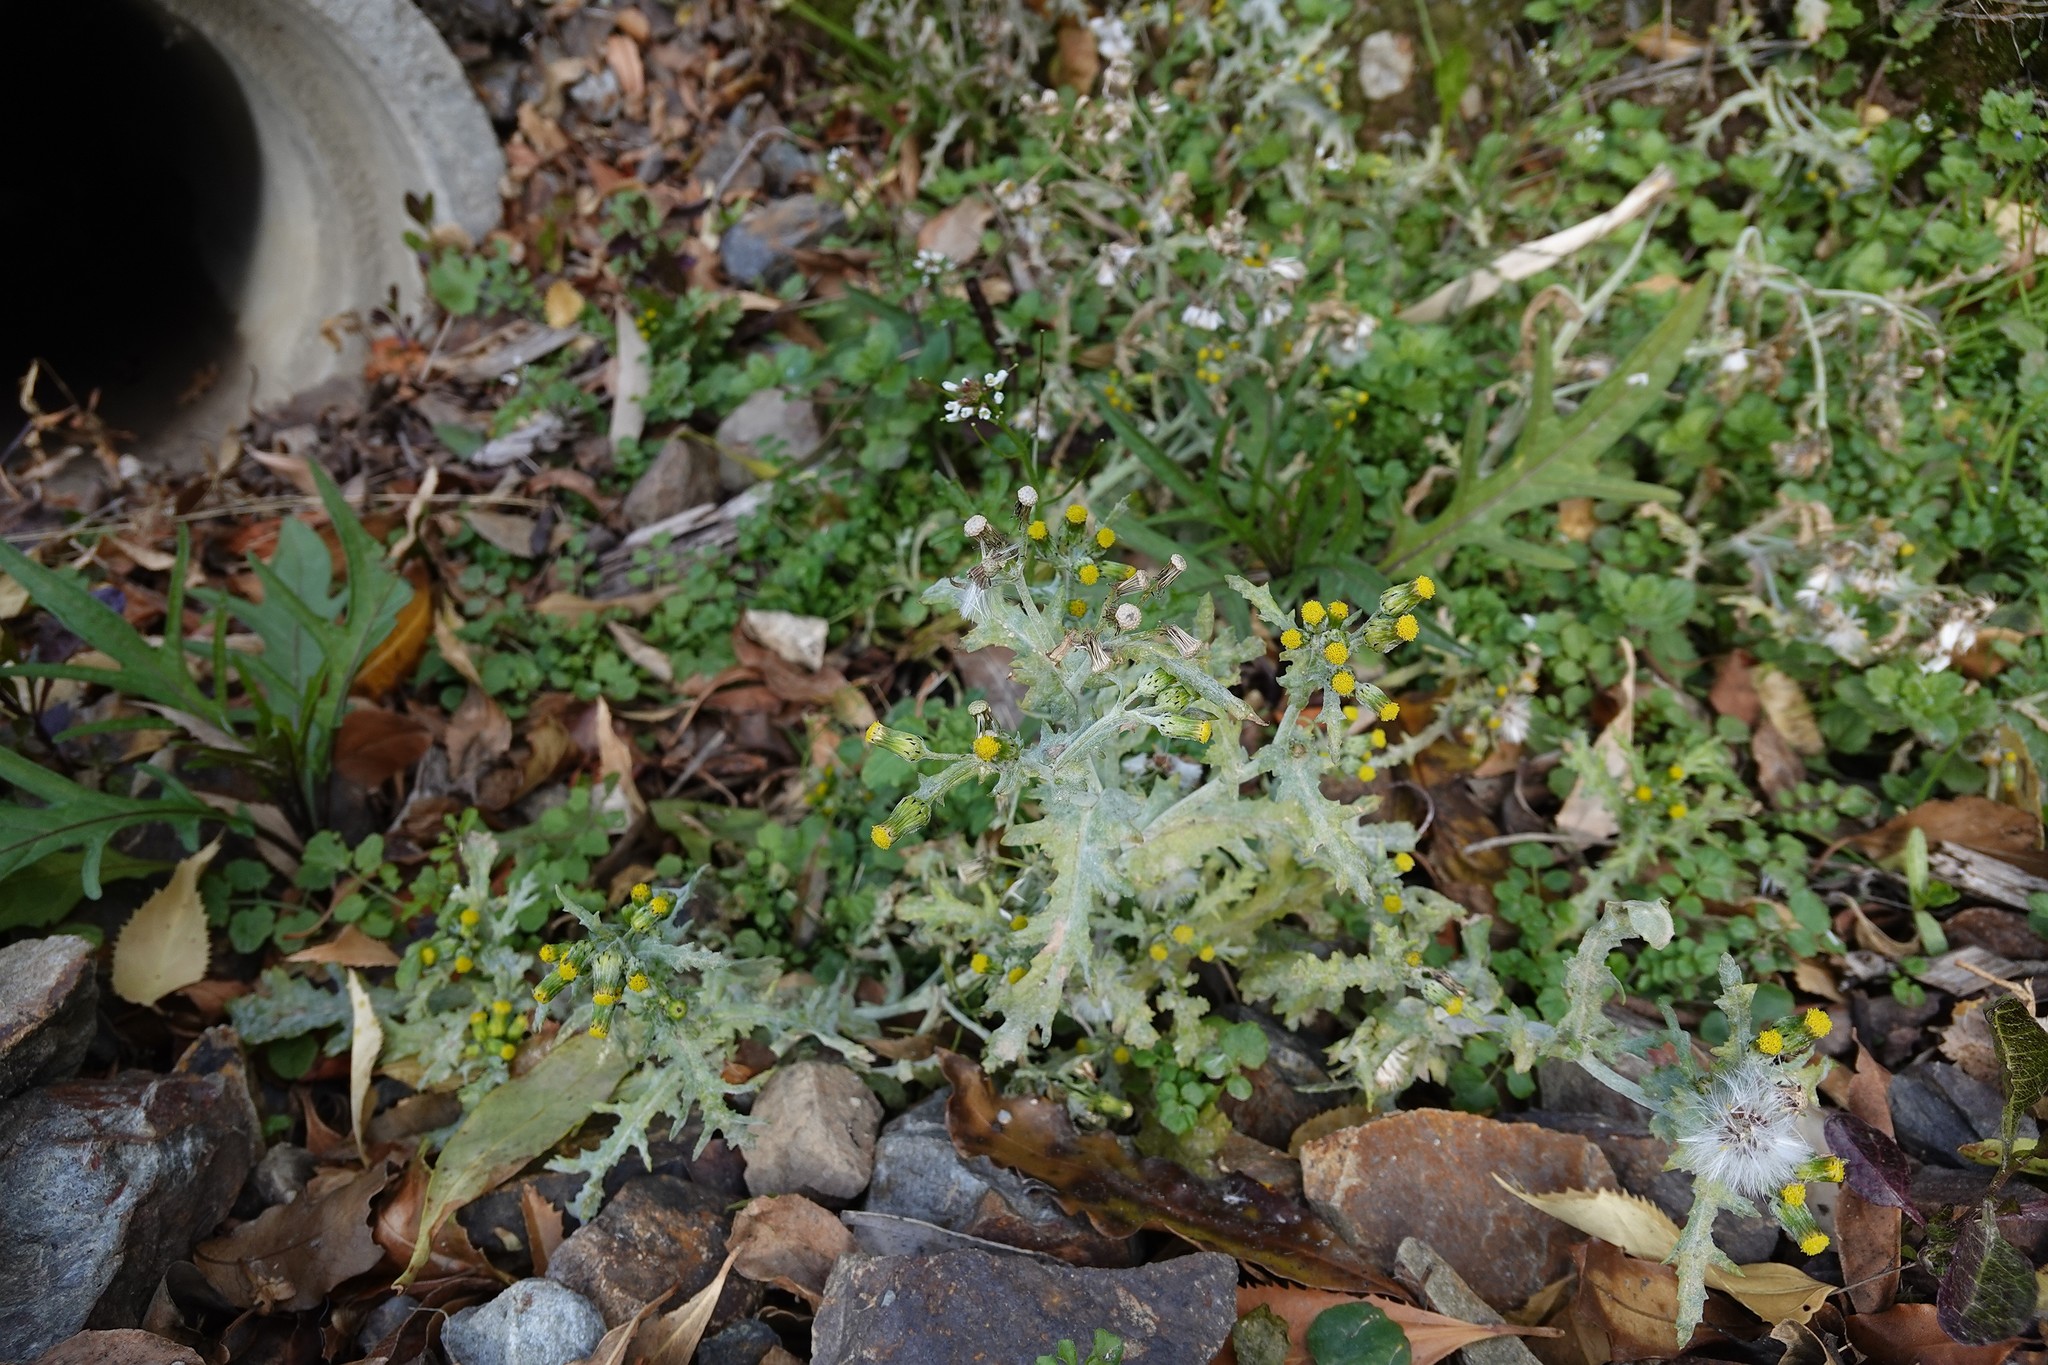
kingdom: Plantae
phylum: Tracheophyta
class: Magnoliopsida
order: Asterales
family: Asteraceae
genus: Senecio
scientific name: Senecio vulgaris
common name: Old-man-in-the-spring
